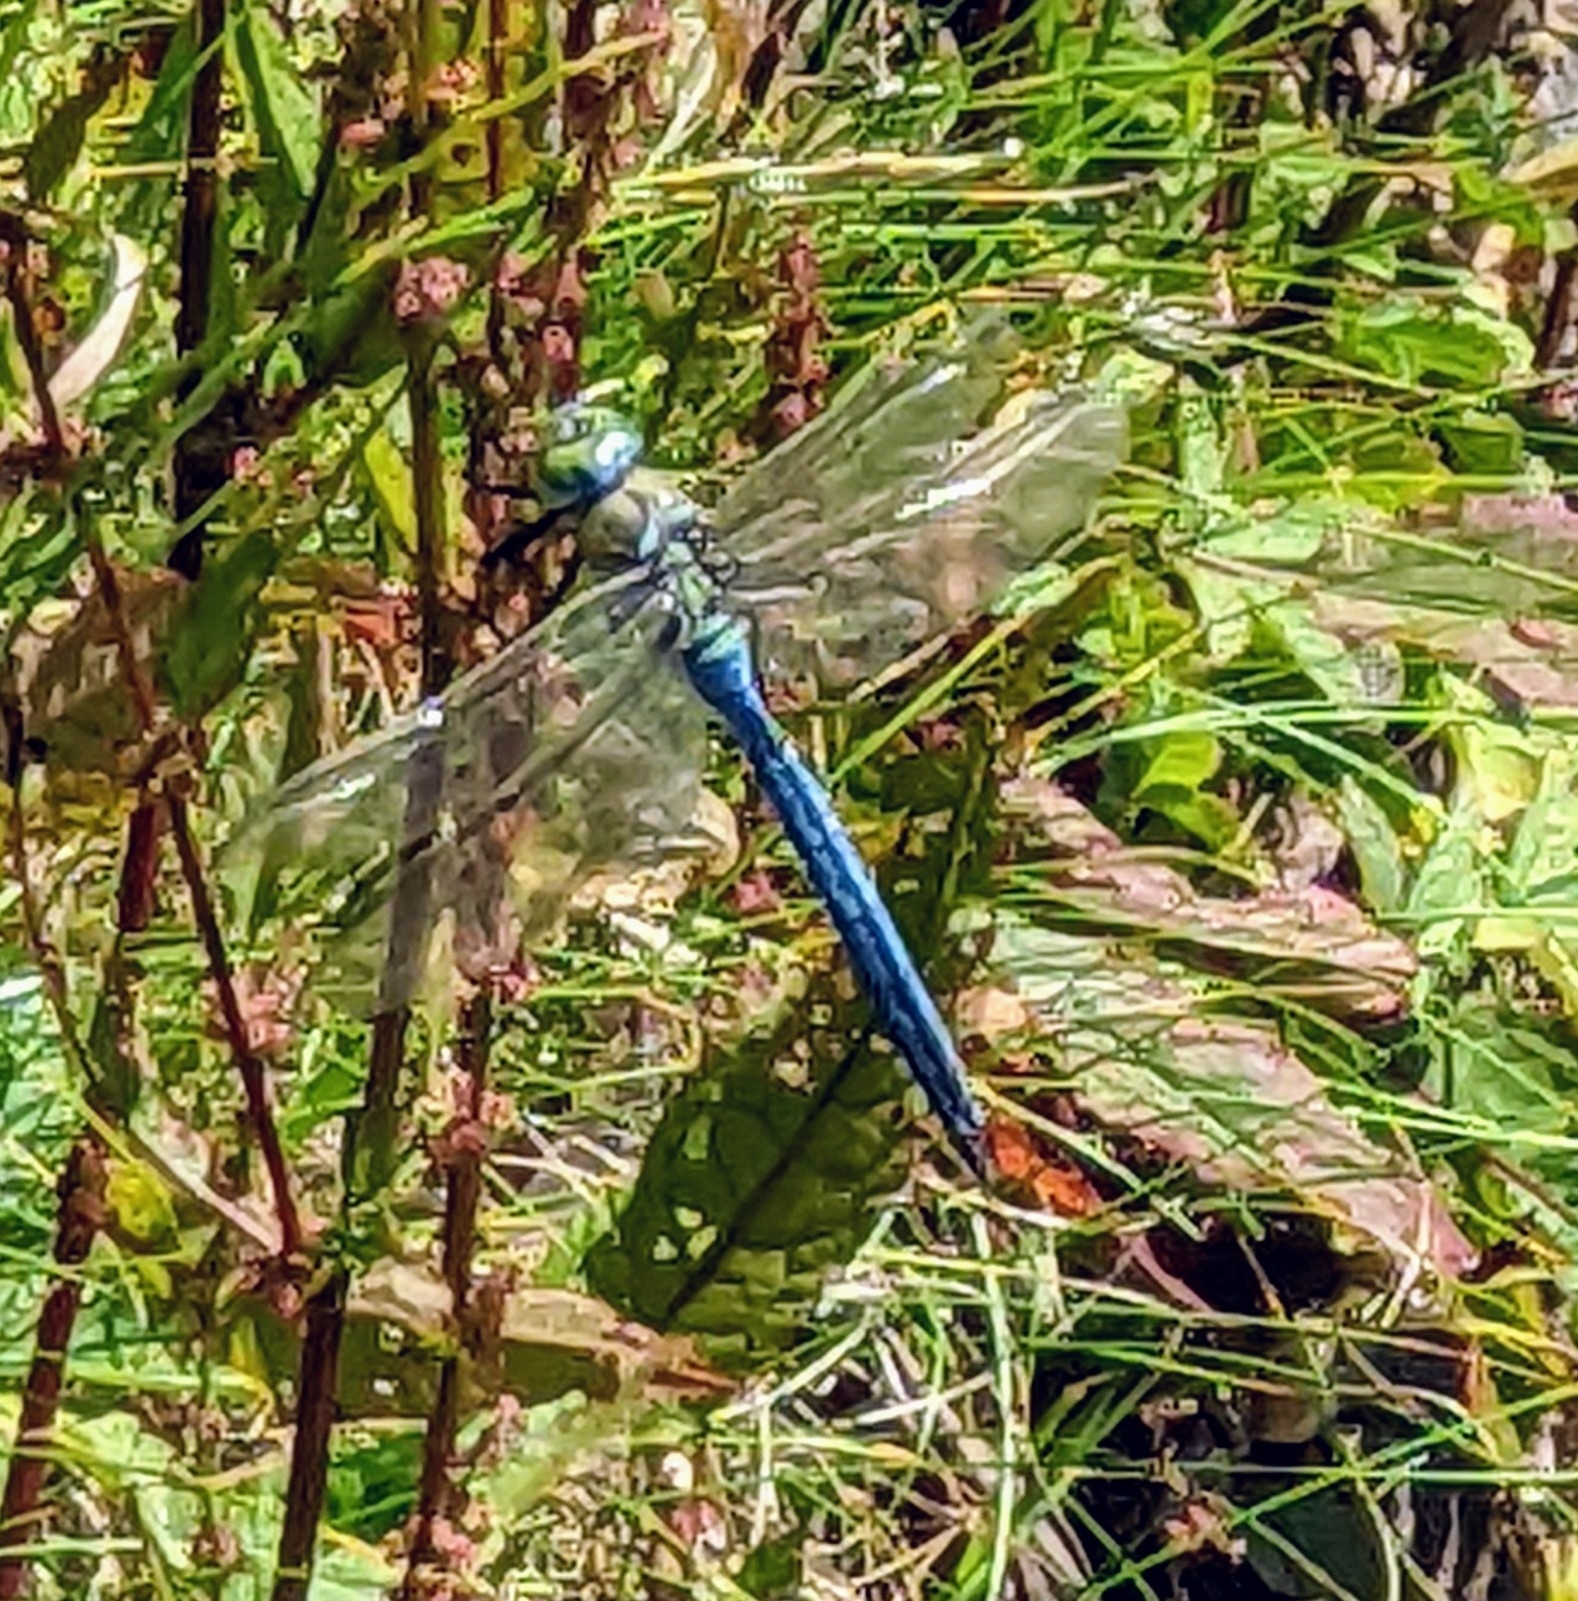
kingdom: Animalia
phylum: Arthropoda
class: Insecta
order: Odonata
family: Aeshnidae
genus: Anax
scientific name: Anax imperator
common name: Emperor dragonfly
